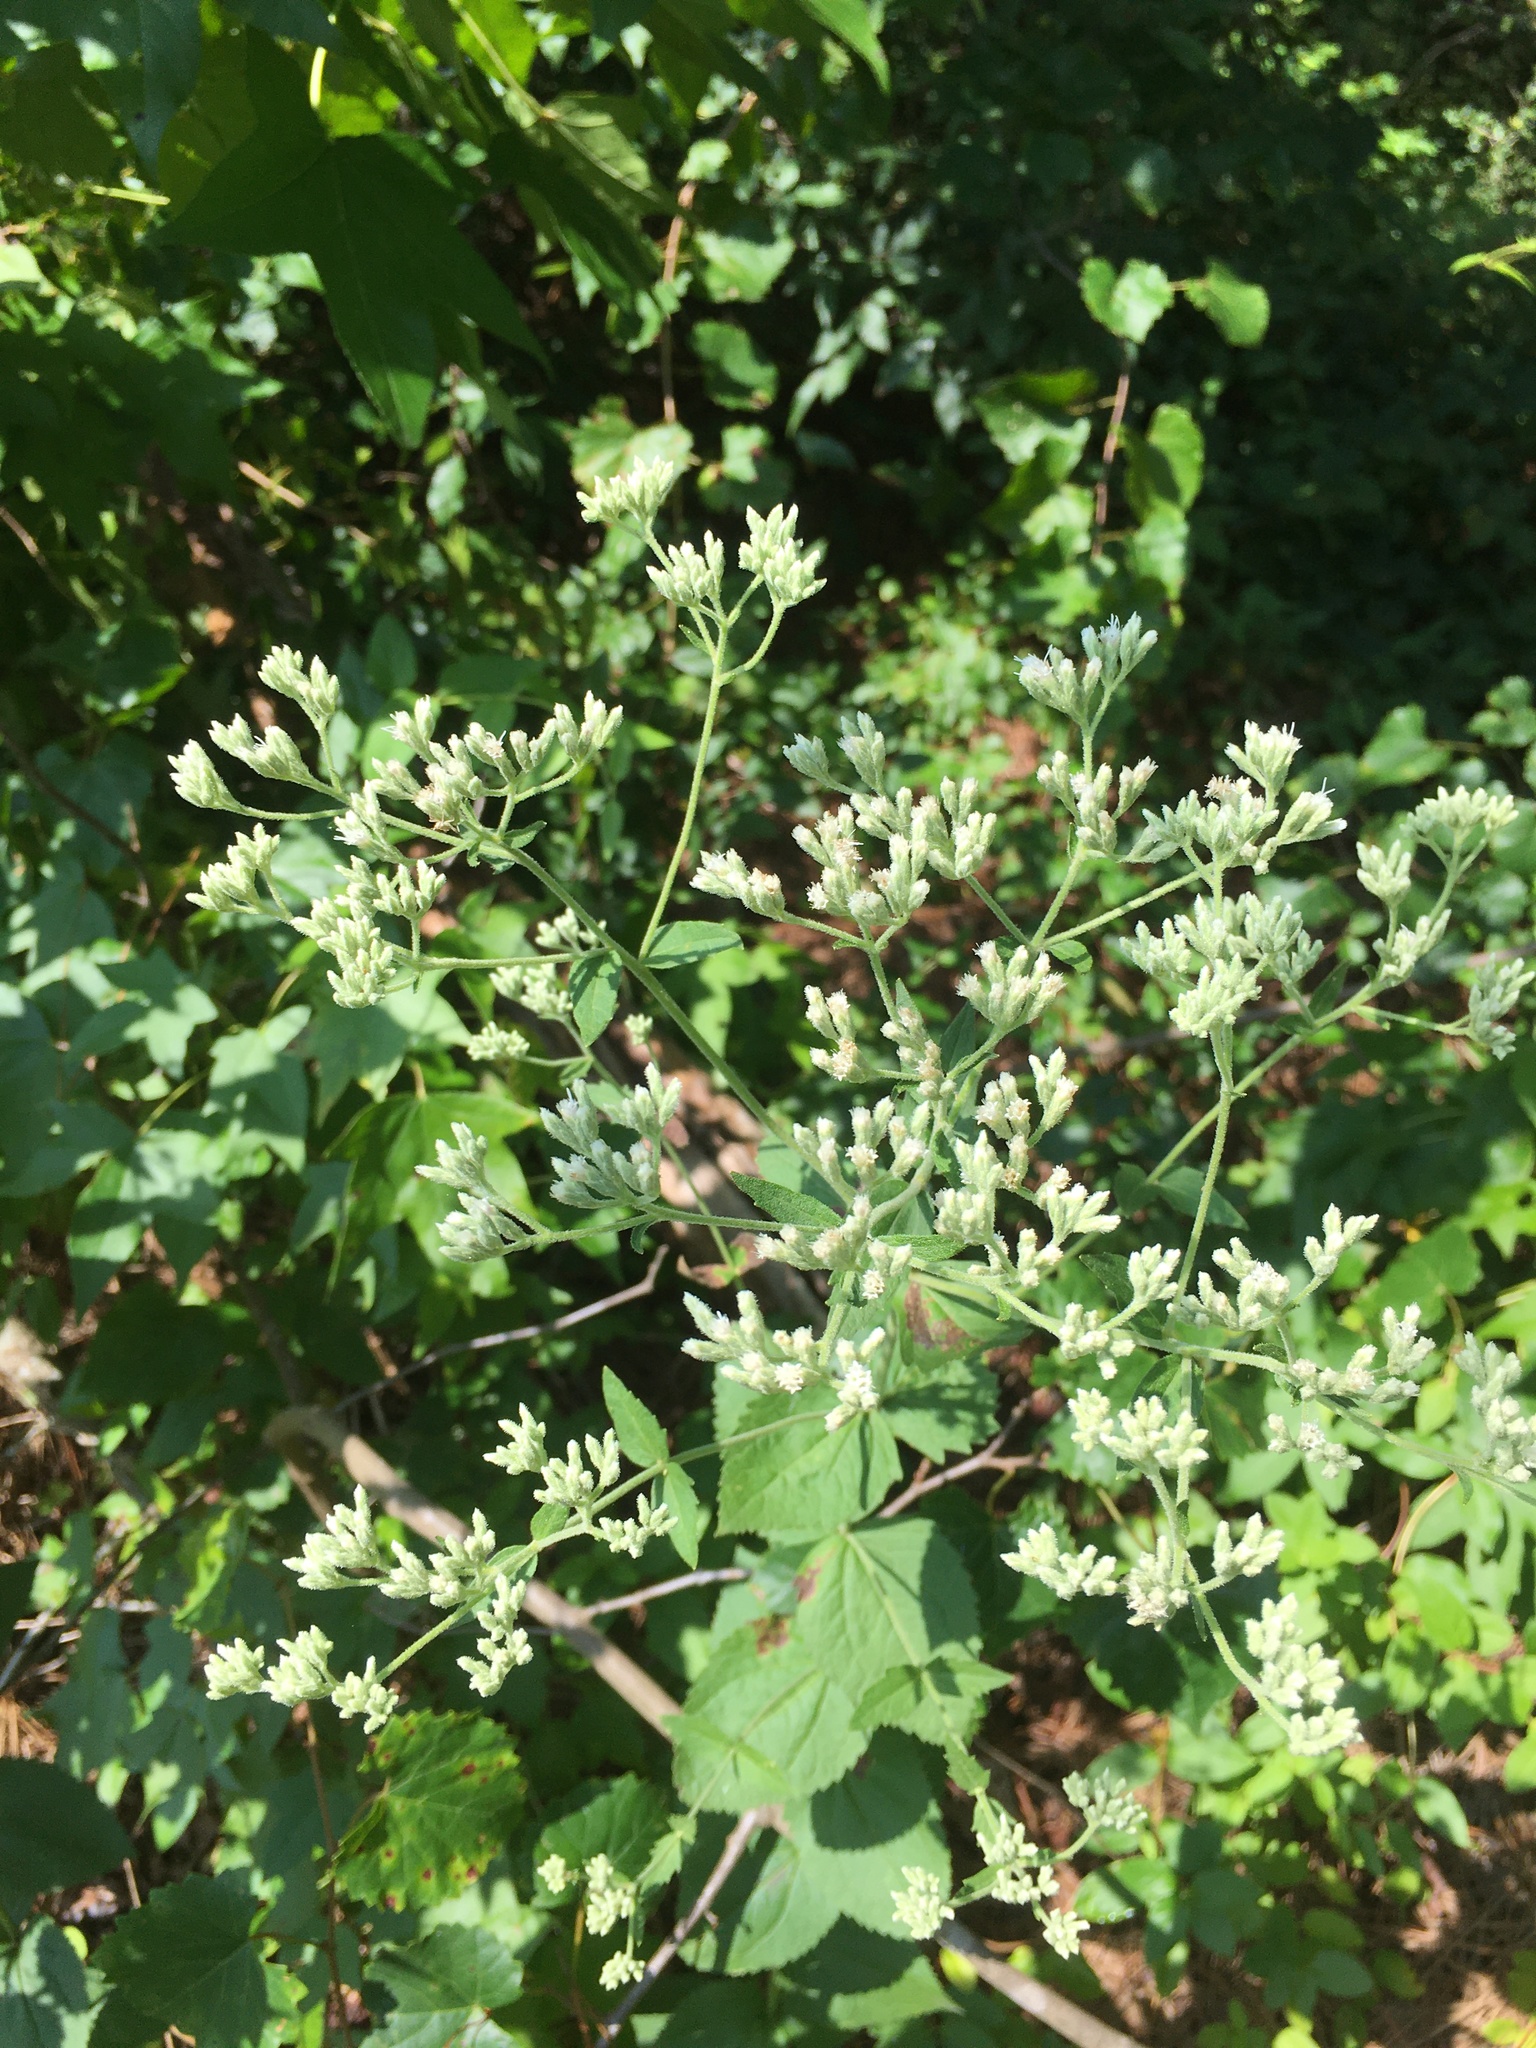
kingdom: Plantae
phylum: Tracheophyta
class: Magnoliopsida
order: Asterales
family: Asteraceae
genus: Eupatorium
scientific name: Eupatorium rotundifolium
